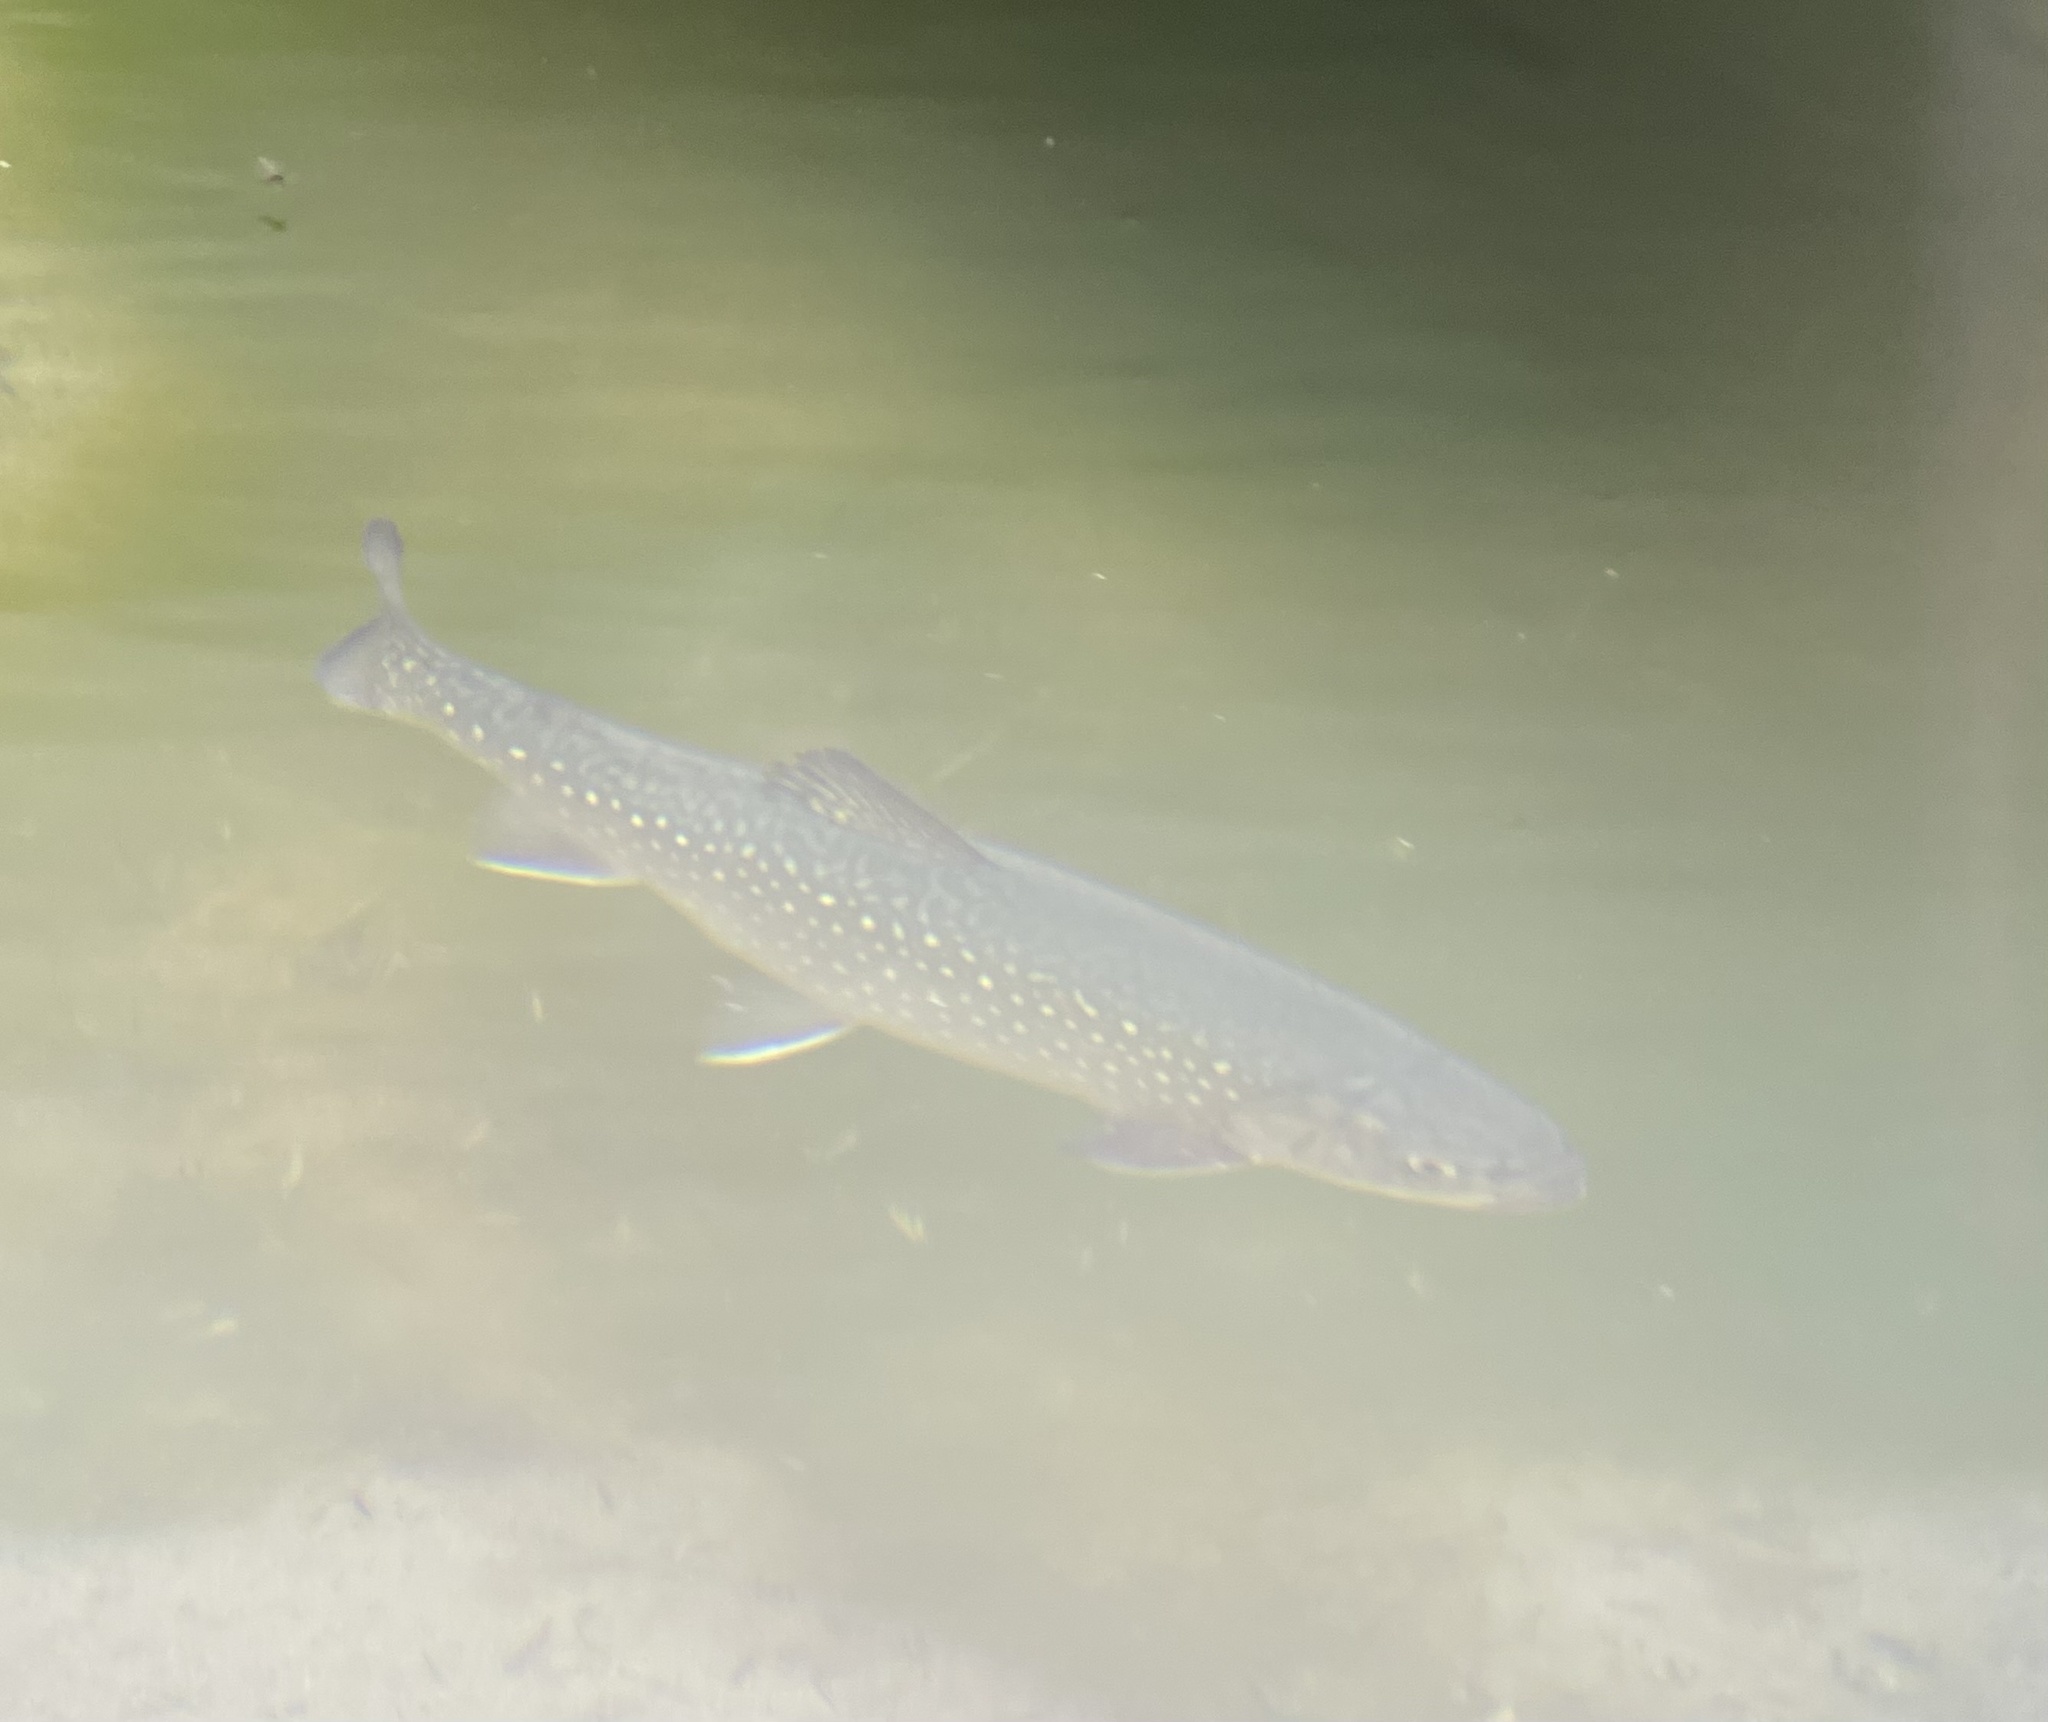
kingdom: Animalia
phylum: Chordata
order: Salmoniformes
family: Salmonidae
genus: Salvelinus
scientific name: Salvelinus fontinalis
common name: Brook trout
